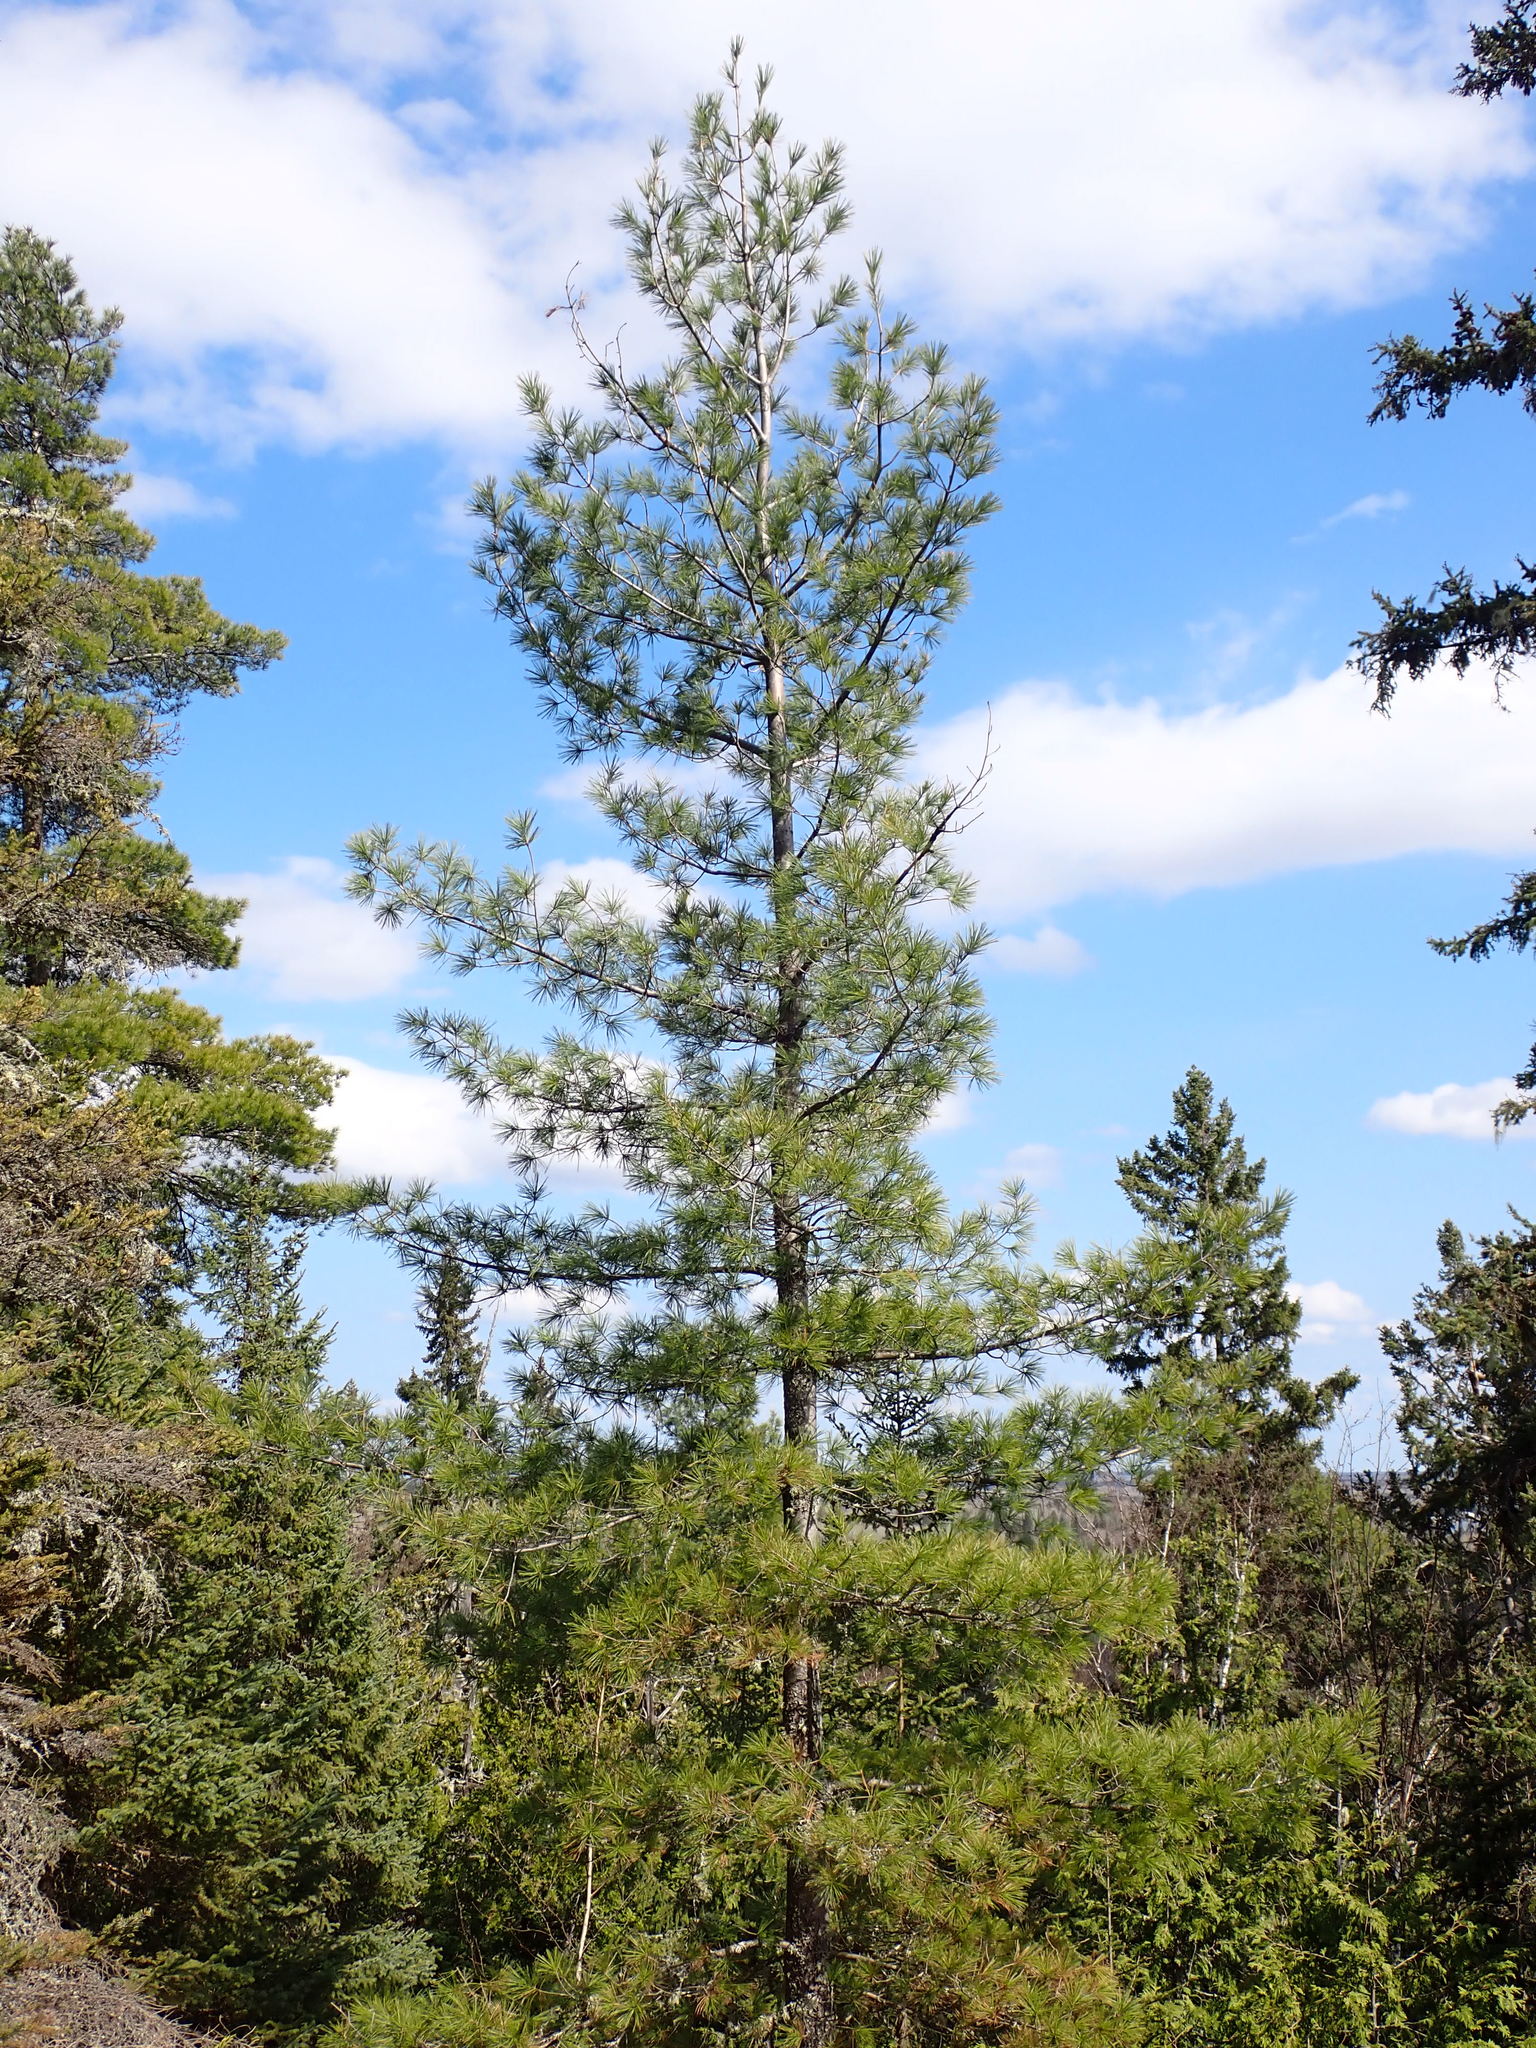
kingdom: Plantae
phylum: Tracheophyta
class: Pinopsida
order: Pinales
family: Pinaceae
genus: Pinus
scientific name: Pinus strobus
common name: Weymouth pine
